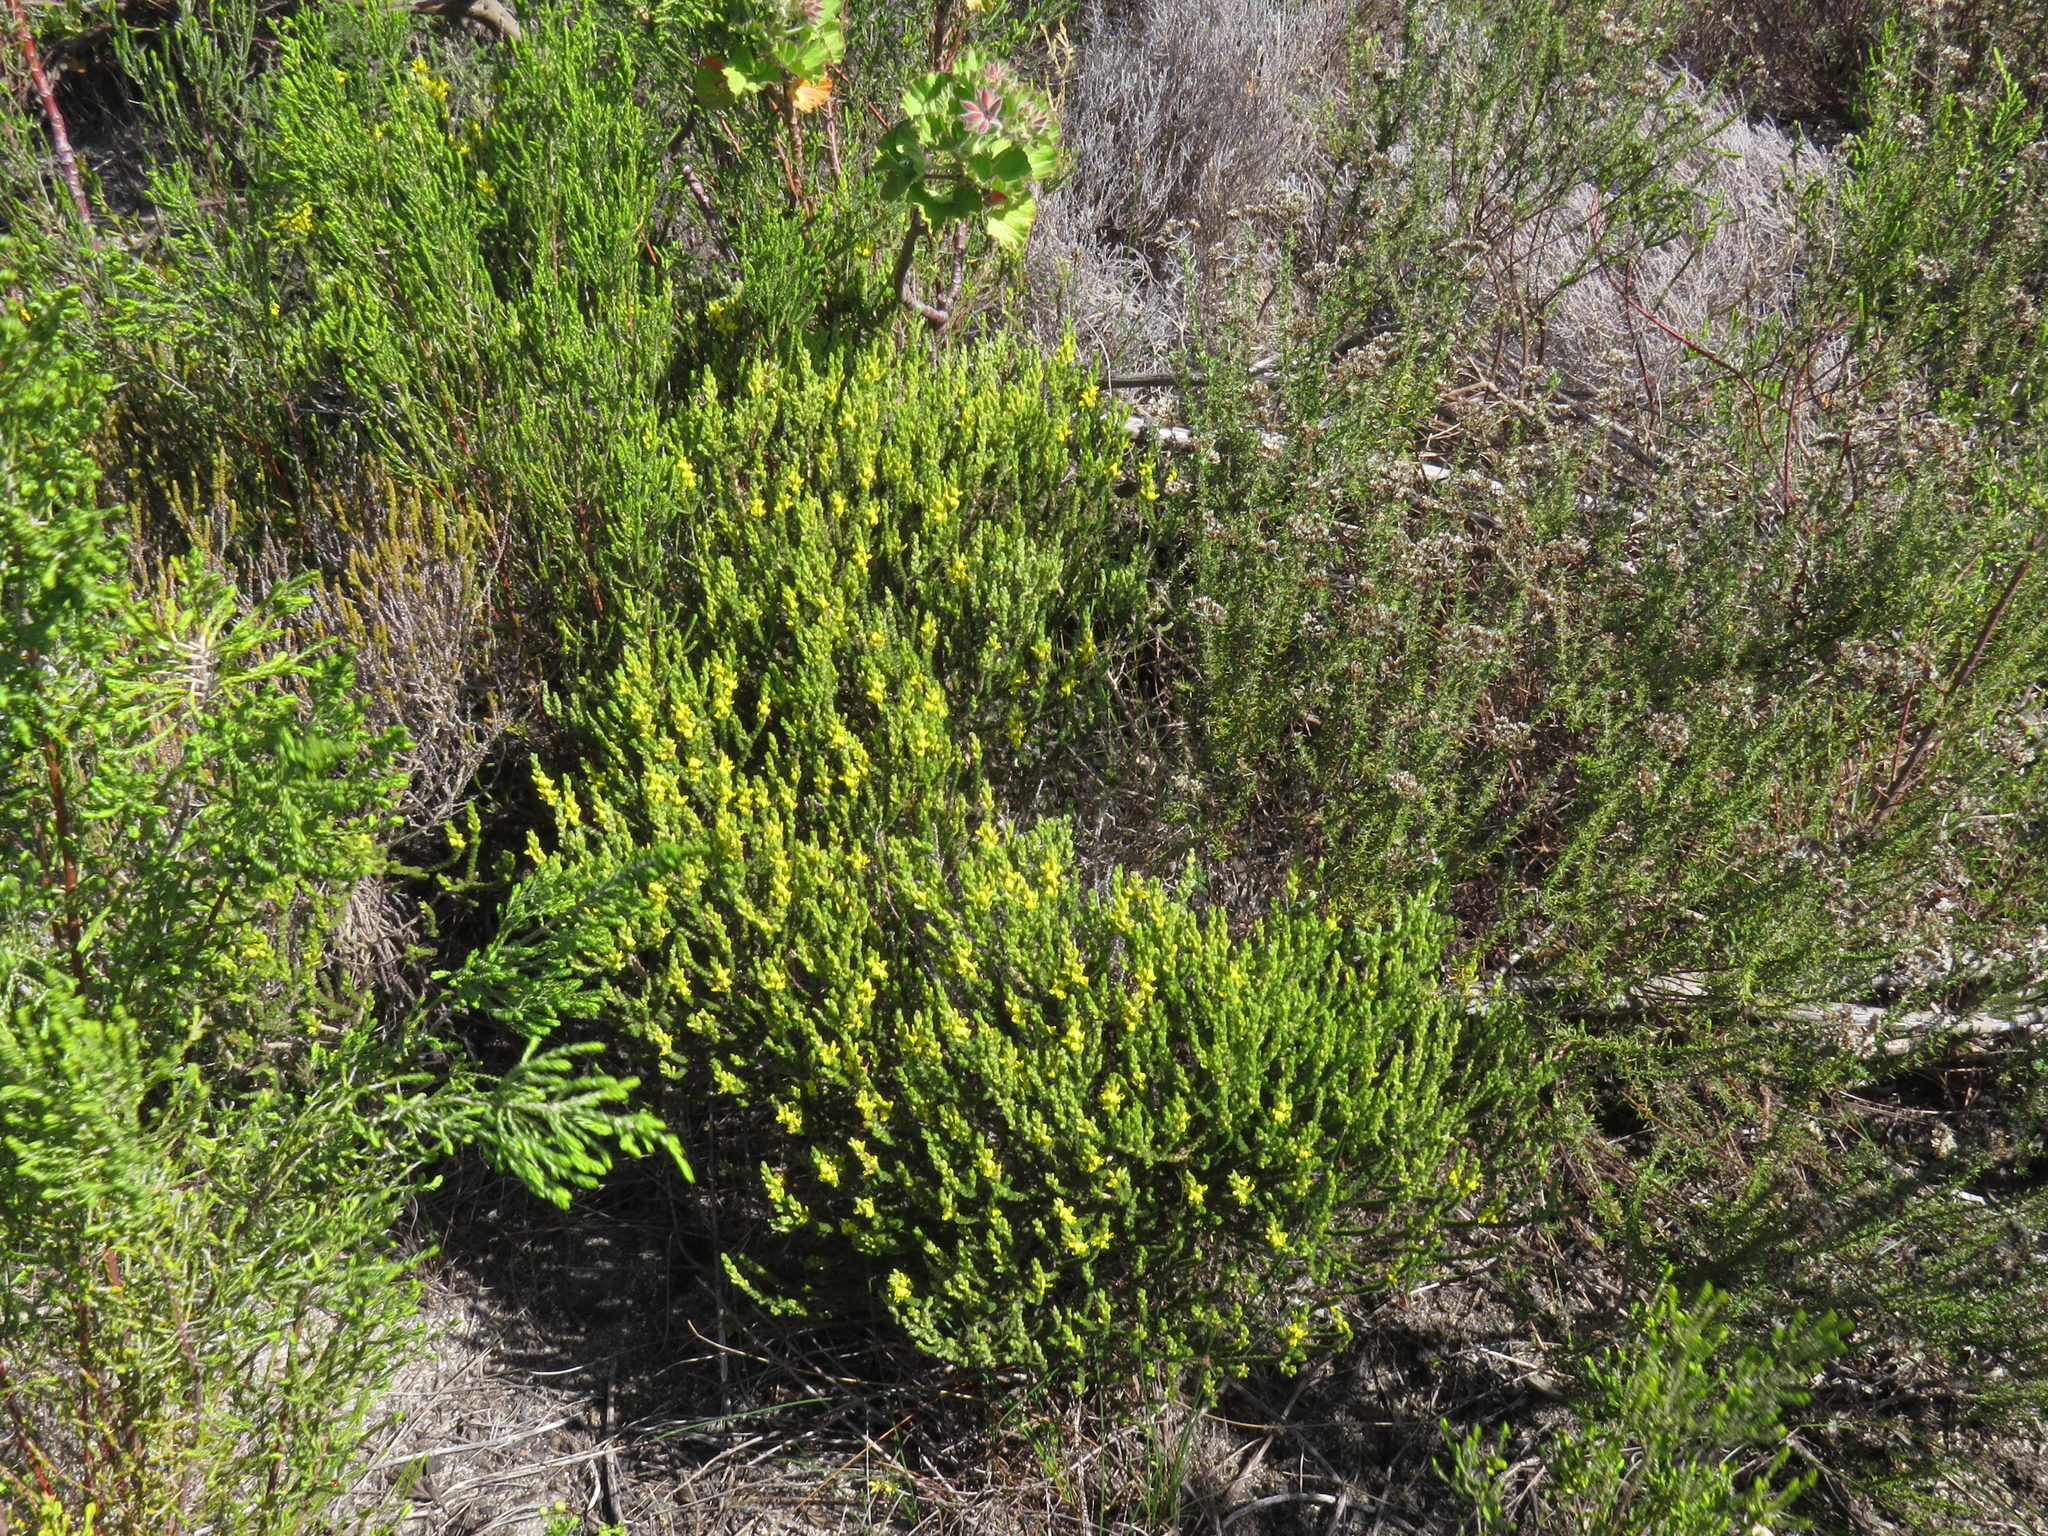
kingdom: Plantae
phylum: Tracheophyta
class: Magnoliopsida
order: Fabales
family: Fabaceae
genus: Aspalathus
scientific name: Aspalathus ericifolia
